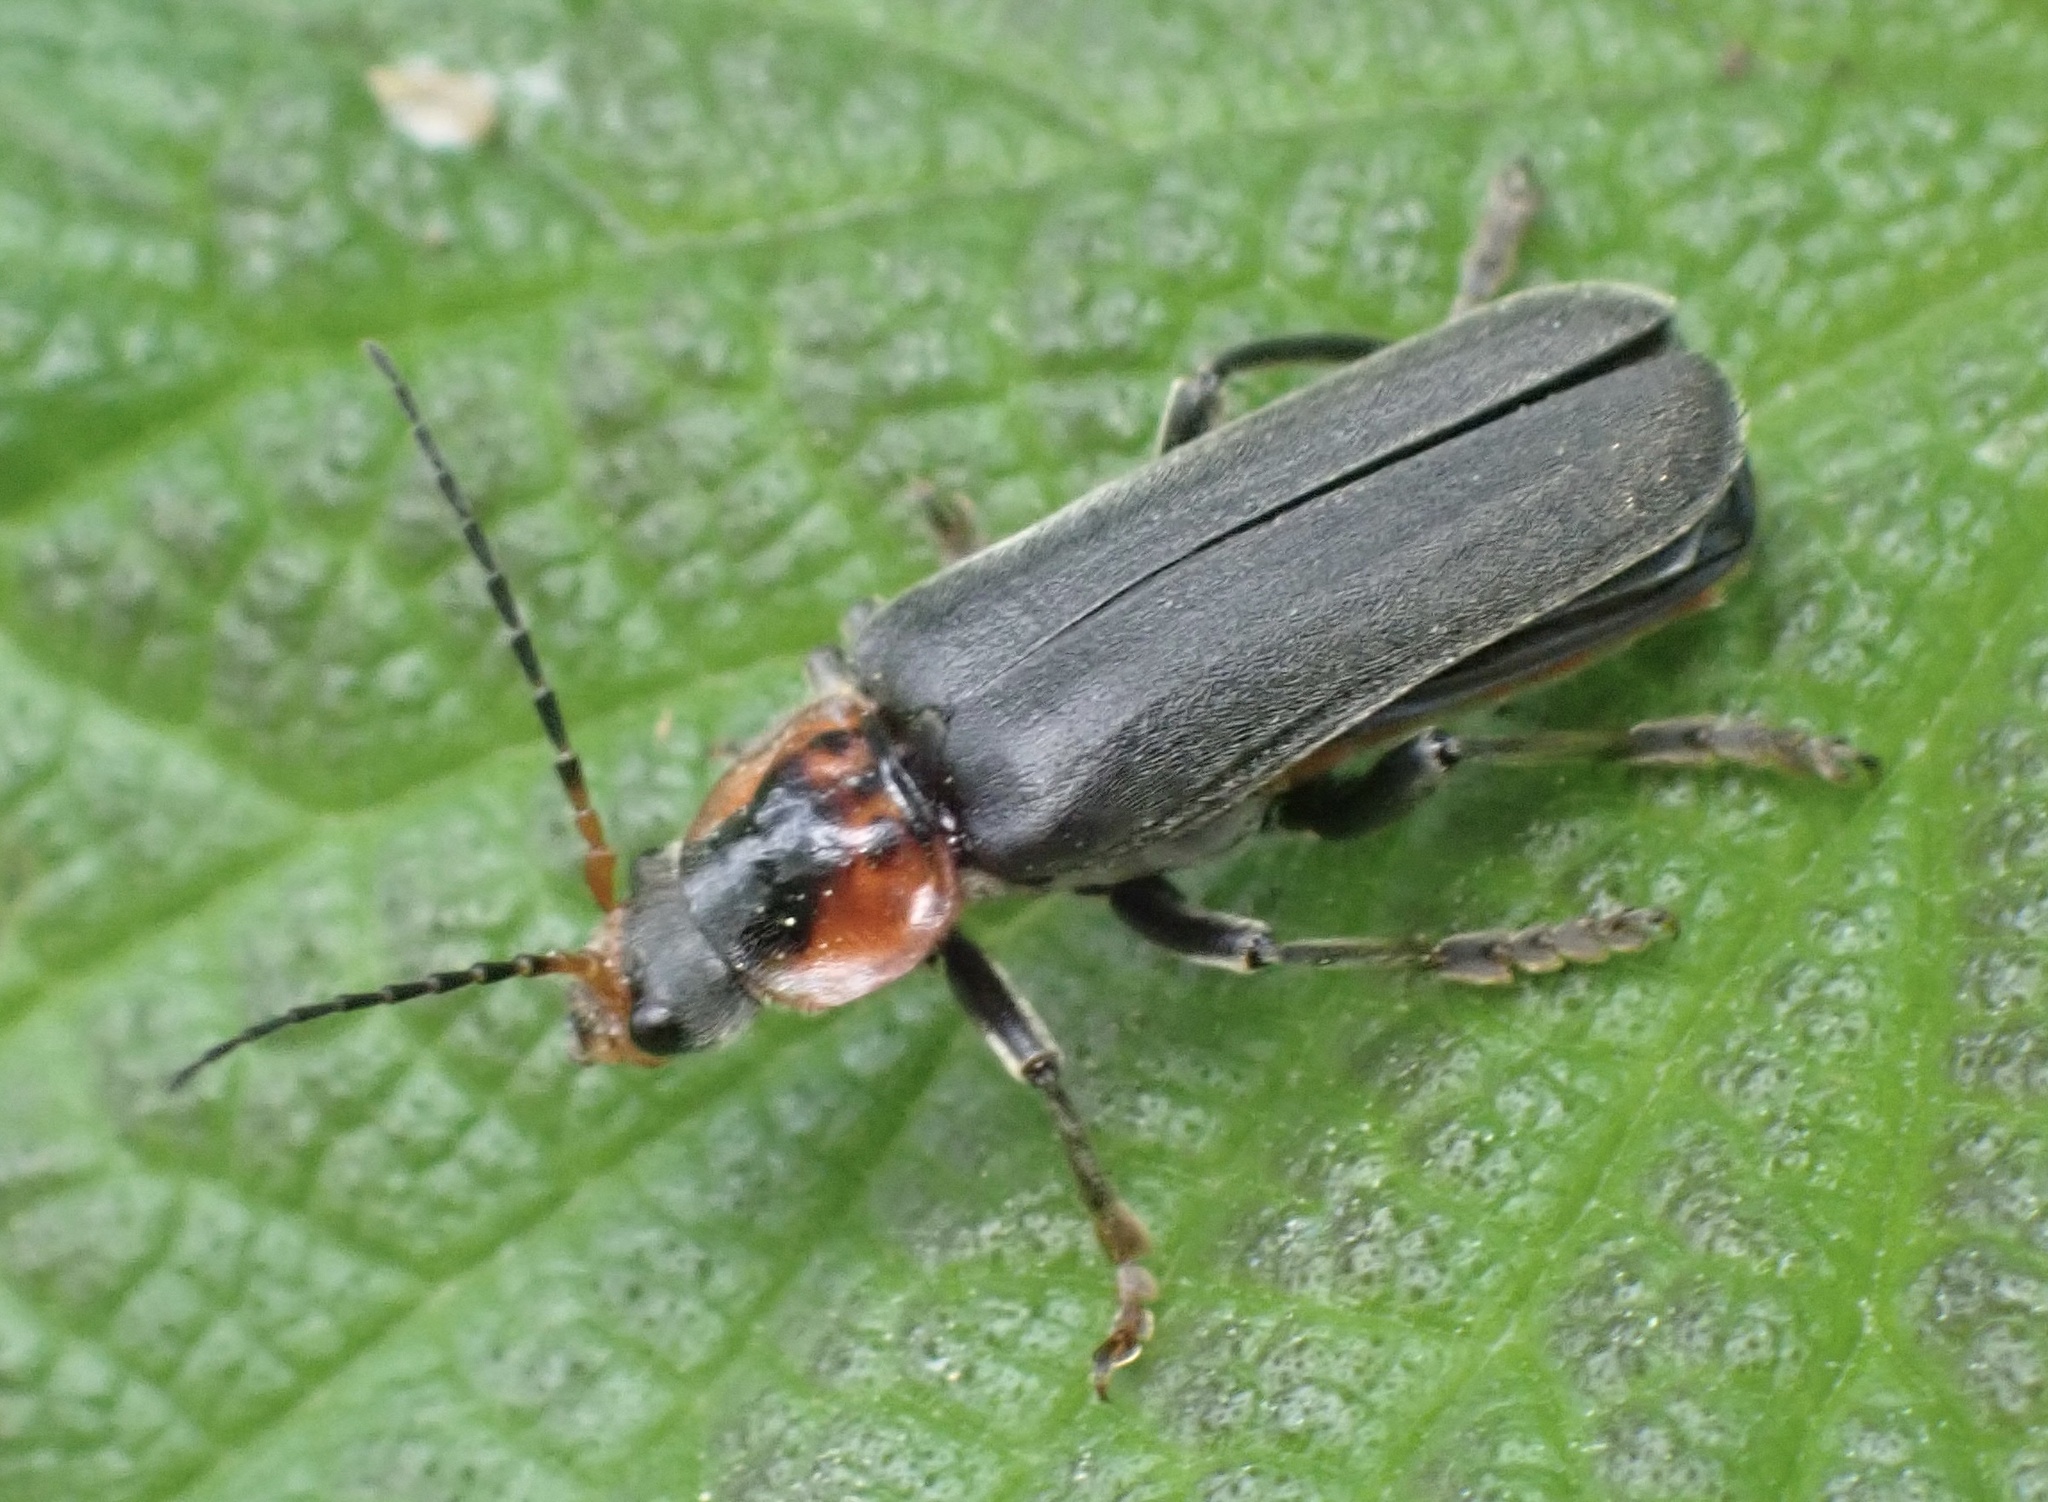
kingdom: Animalia
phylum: Arthropoda
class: Insecta
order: Coleoptera
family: Cantharidae
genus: Cantharis
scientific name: Cantharis fusca
